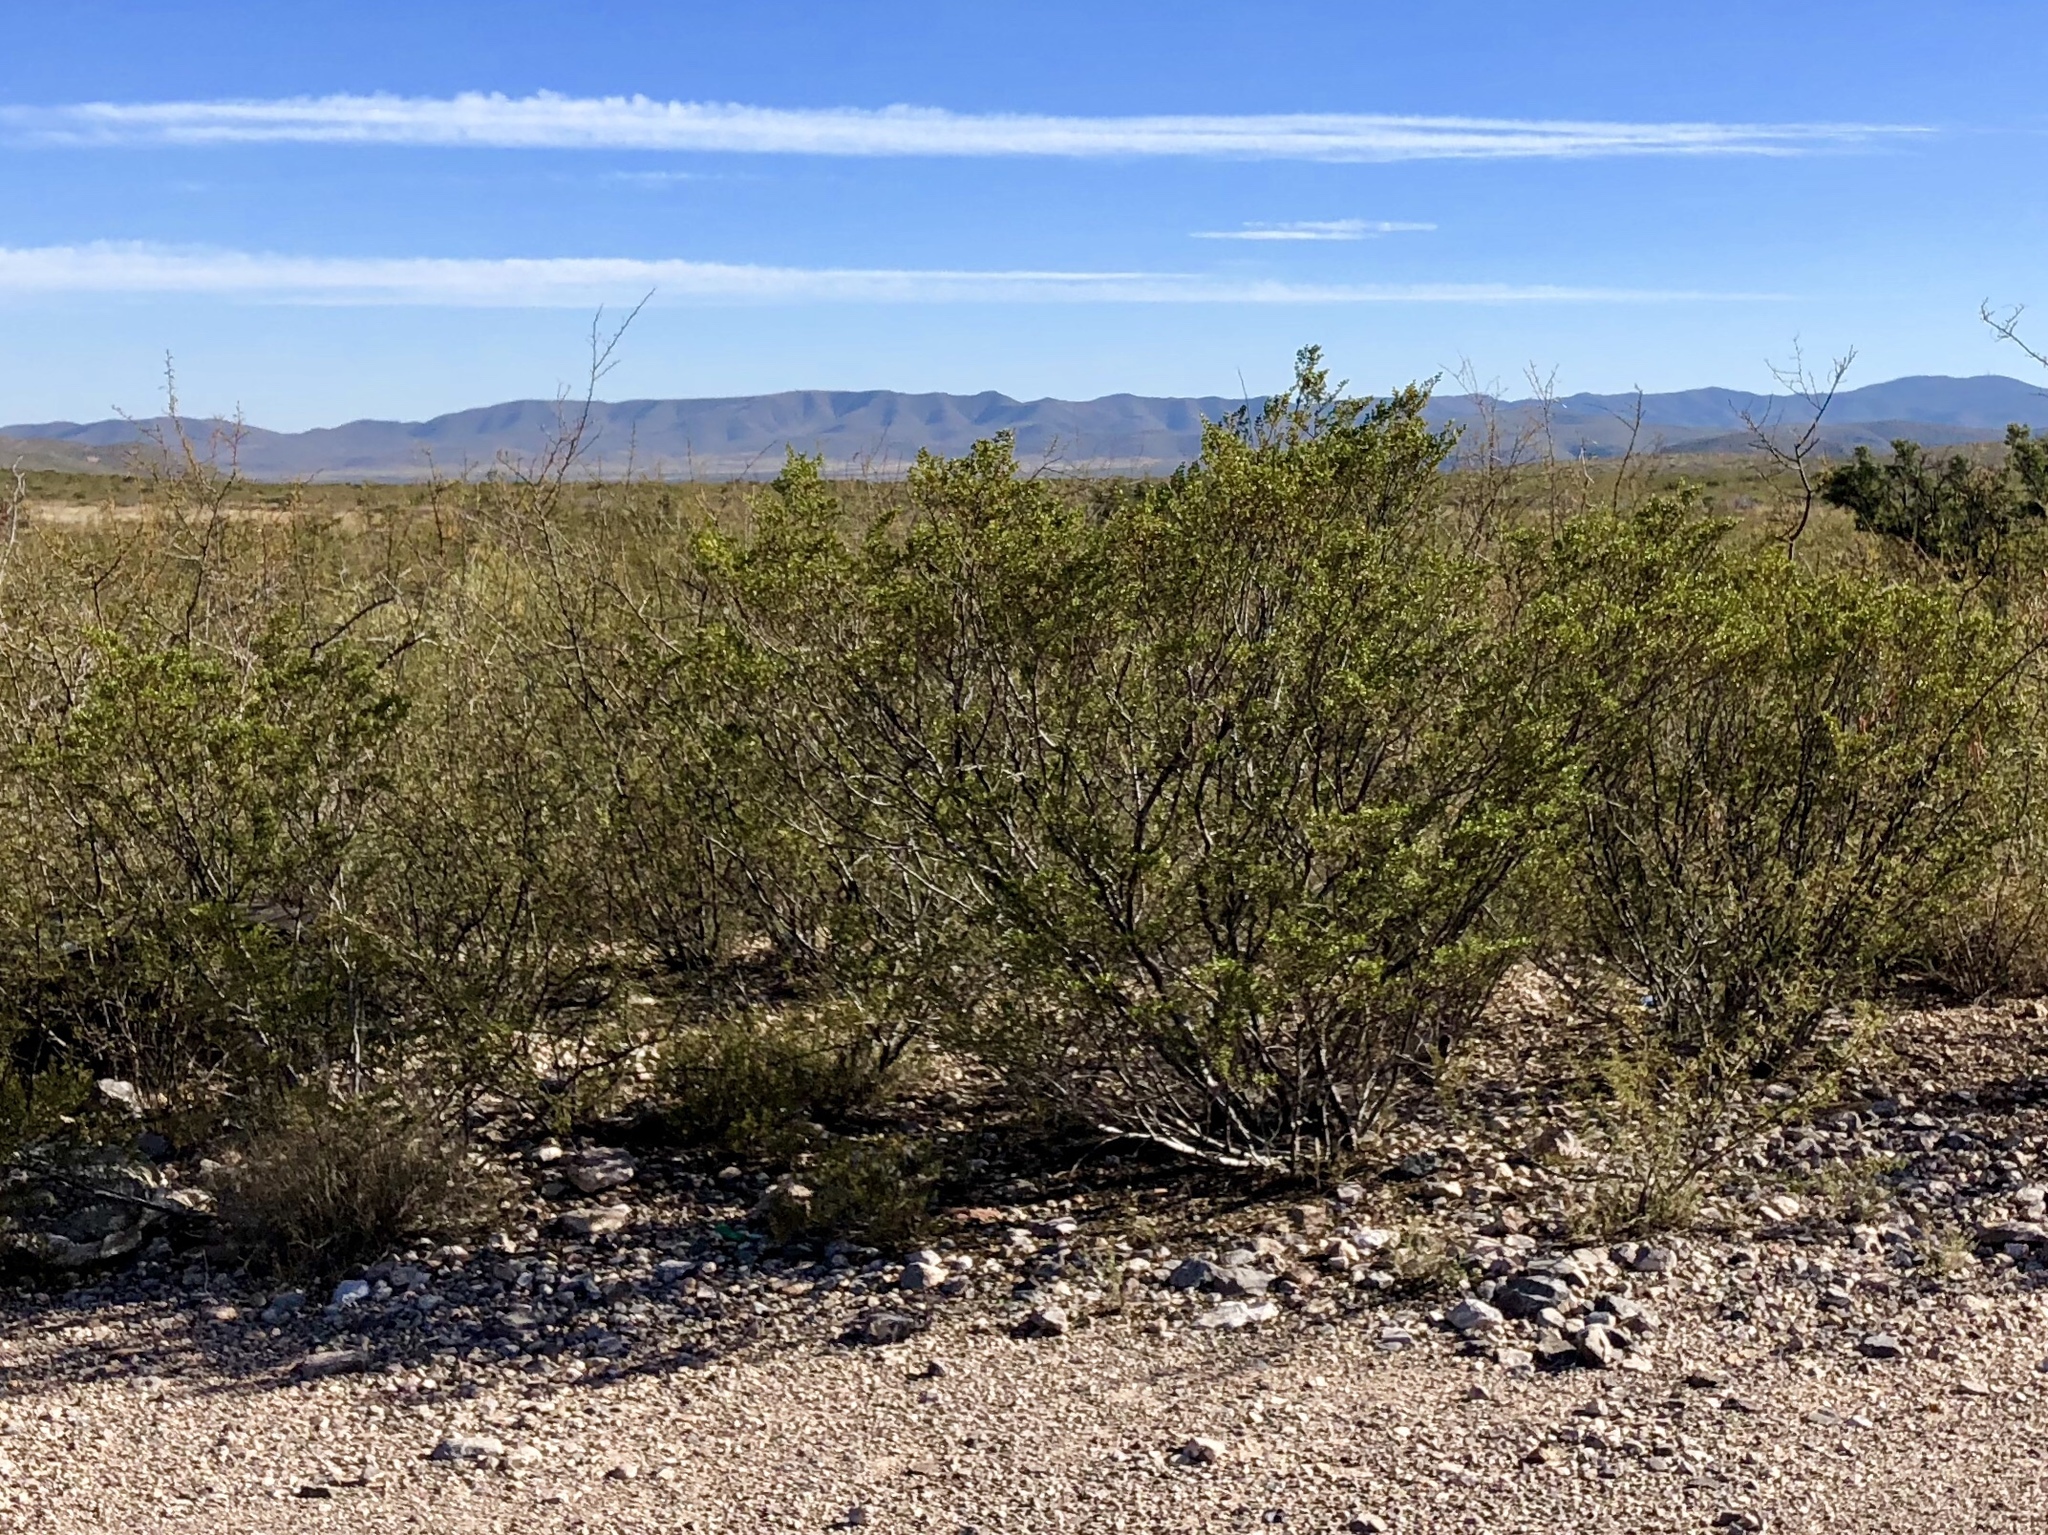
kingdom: Plantae
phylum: Tracheophyta
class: Magnoliopsida
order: Zygophyllales
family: Zygophyllaceae
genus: Larrea
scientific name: Larrea tridentata
